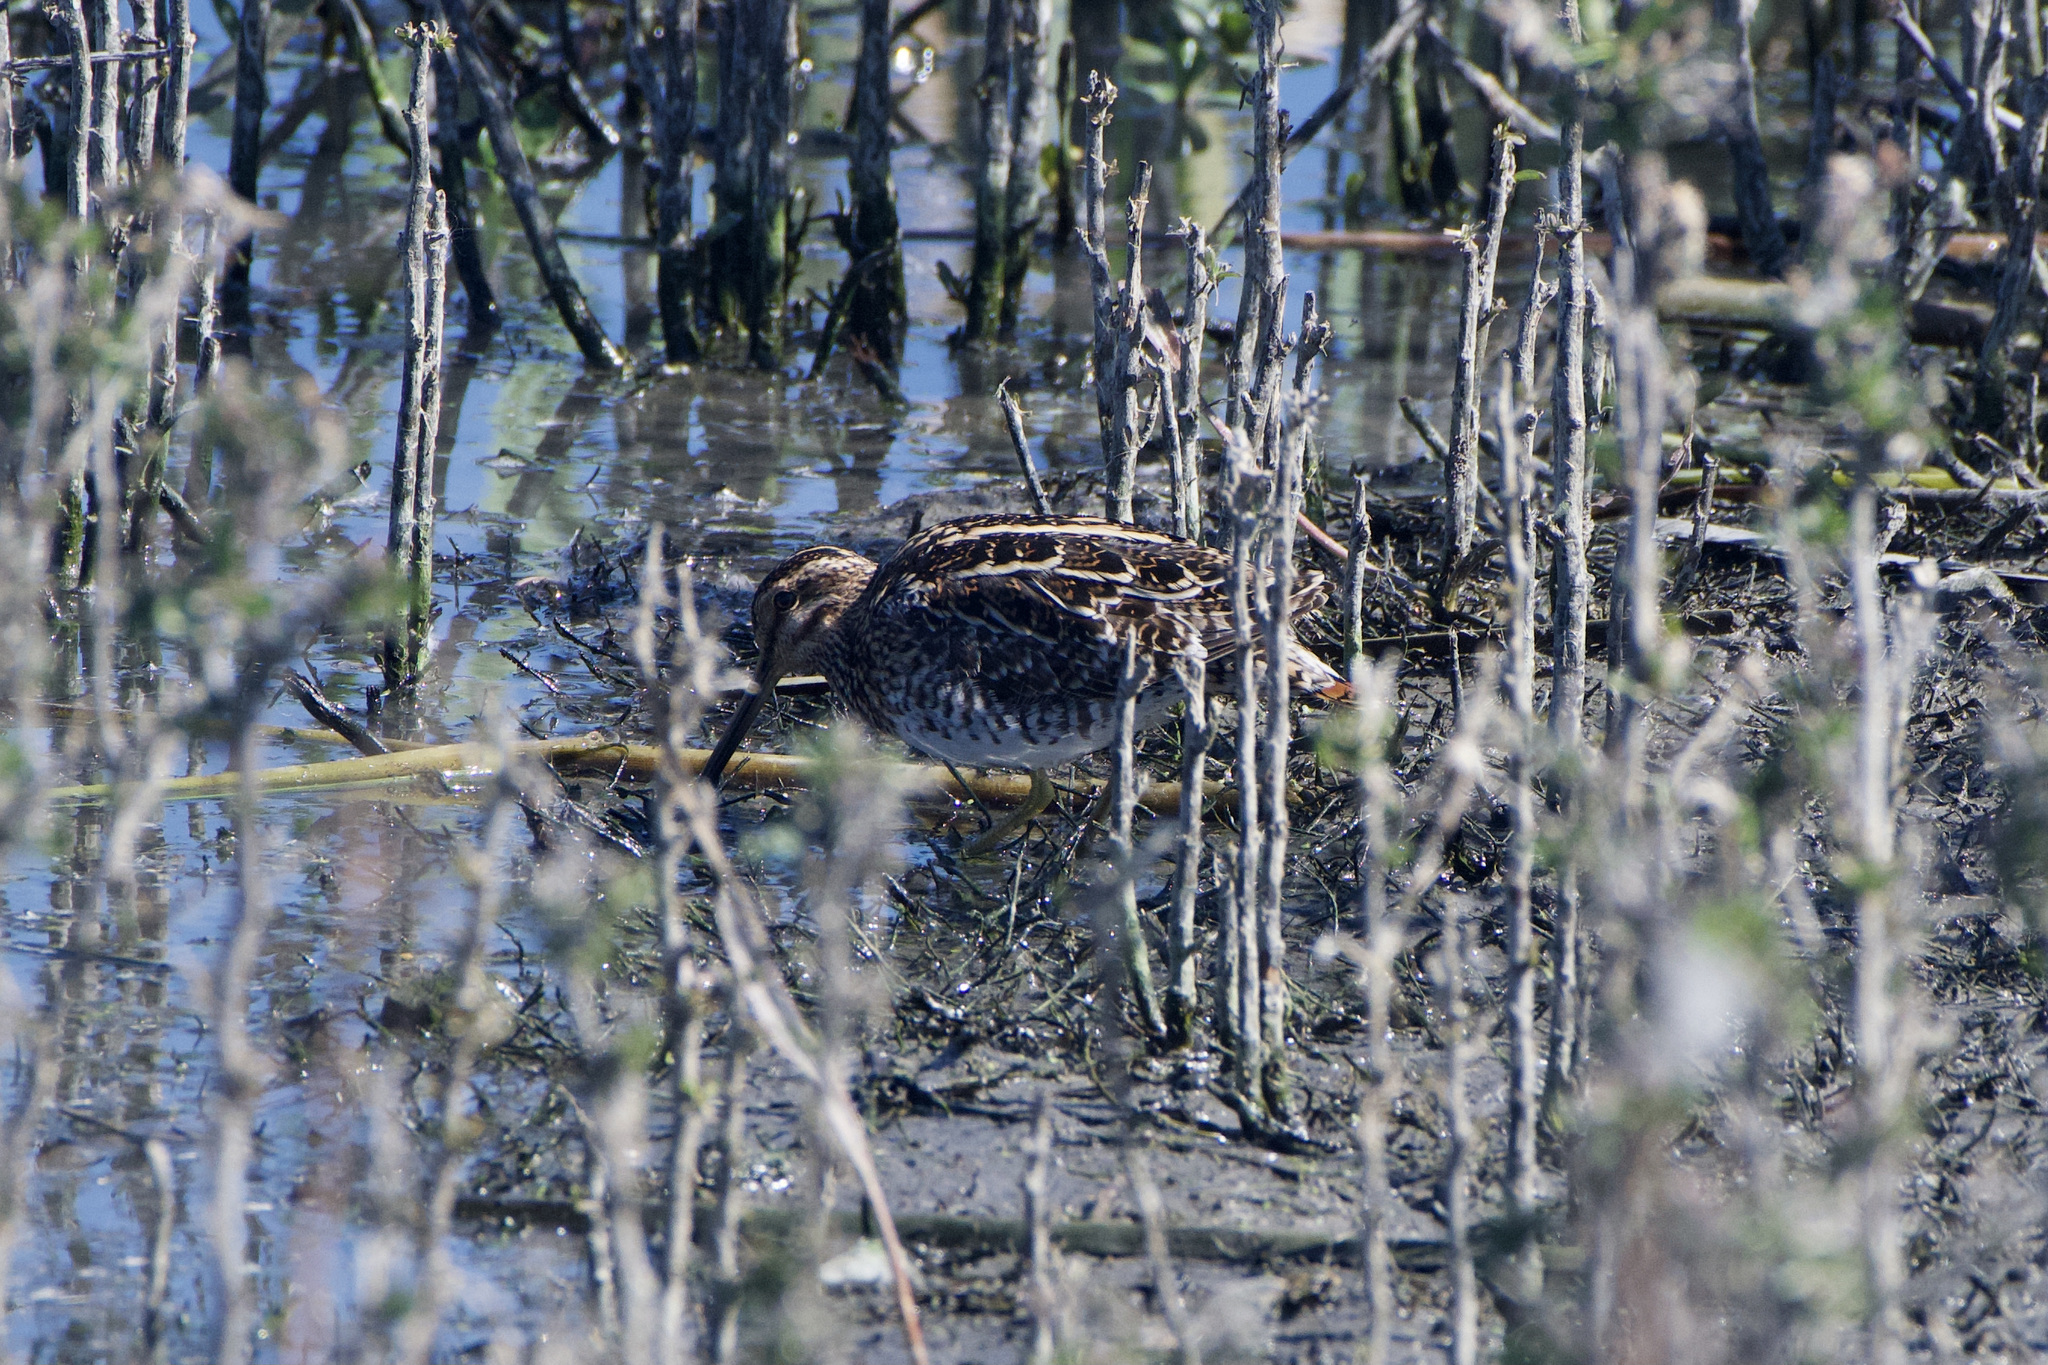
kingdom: Animalia
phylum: Chordata
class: Aves
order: Charadriiformes
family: Scolopacidae
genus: Gallinago
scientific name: Gallinago delicata
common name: Wilson's snipe
